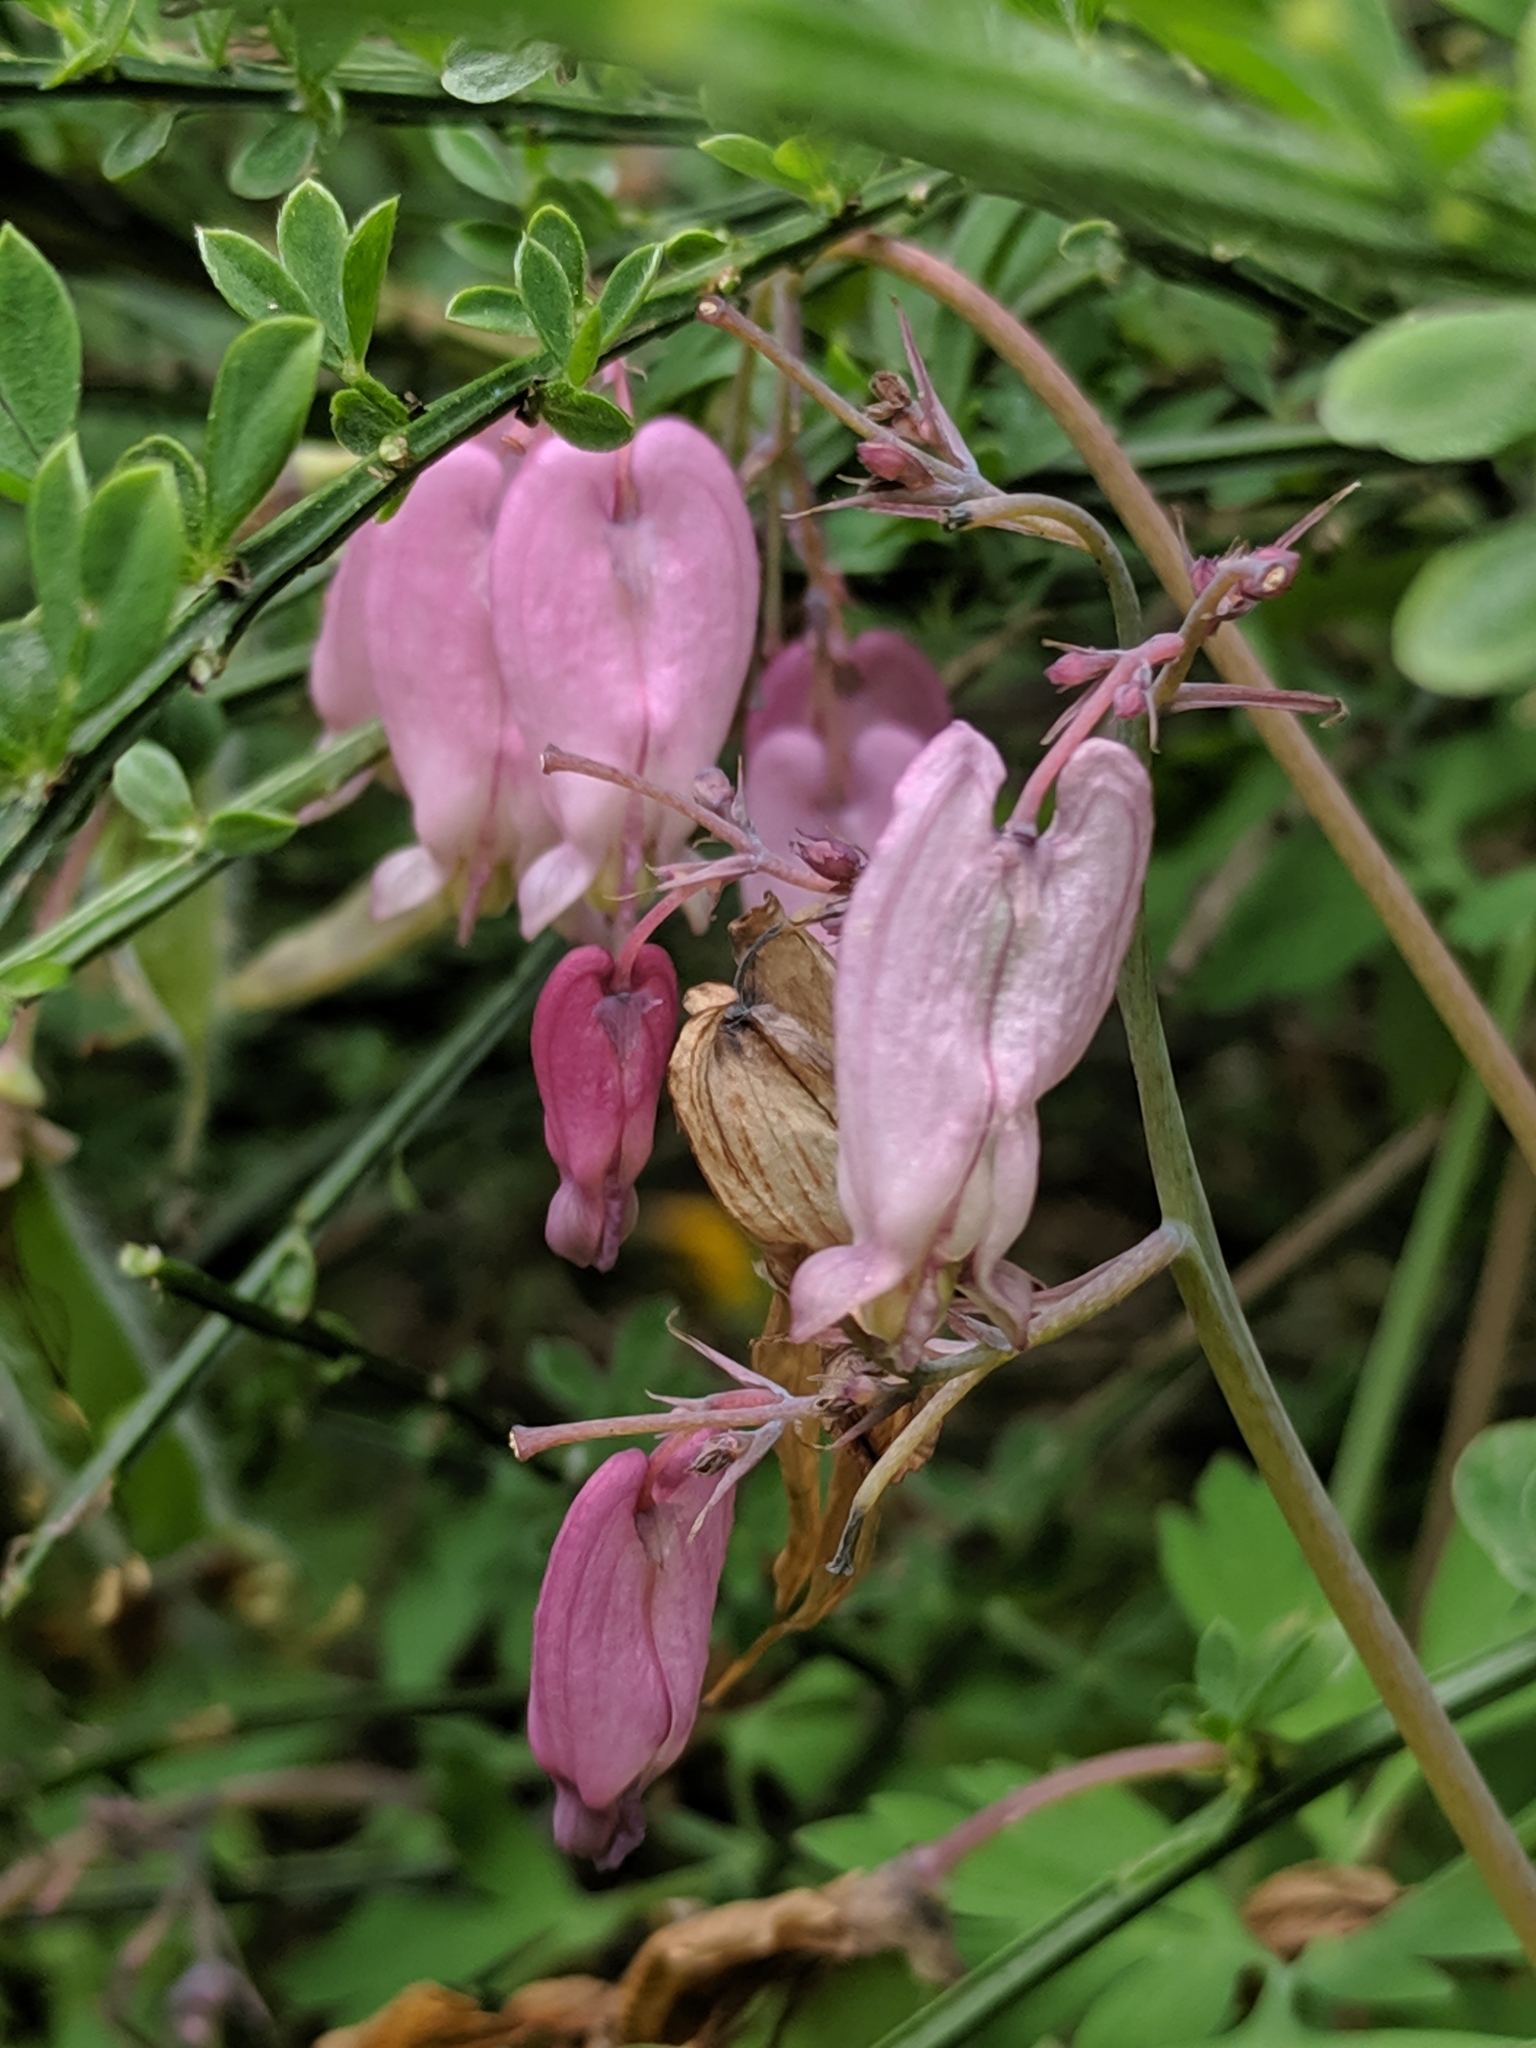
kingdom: Plantae
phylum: Tracheophyta
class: Magnoliopsida
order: Ranunculales
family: Papaveraceae
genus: Dicentra
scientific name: Dicentra formosa
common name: Bleeding-heart
